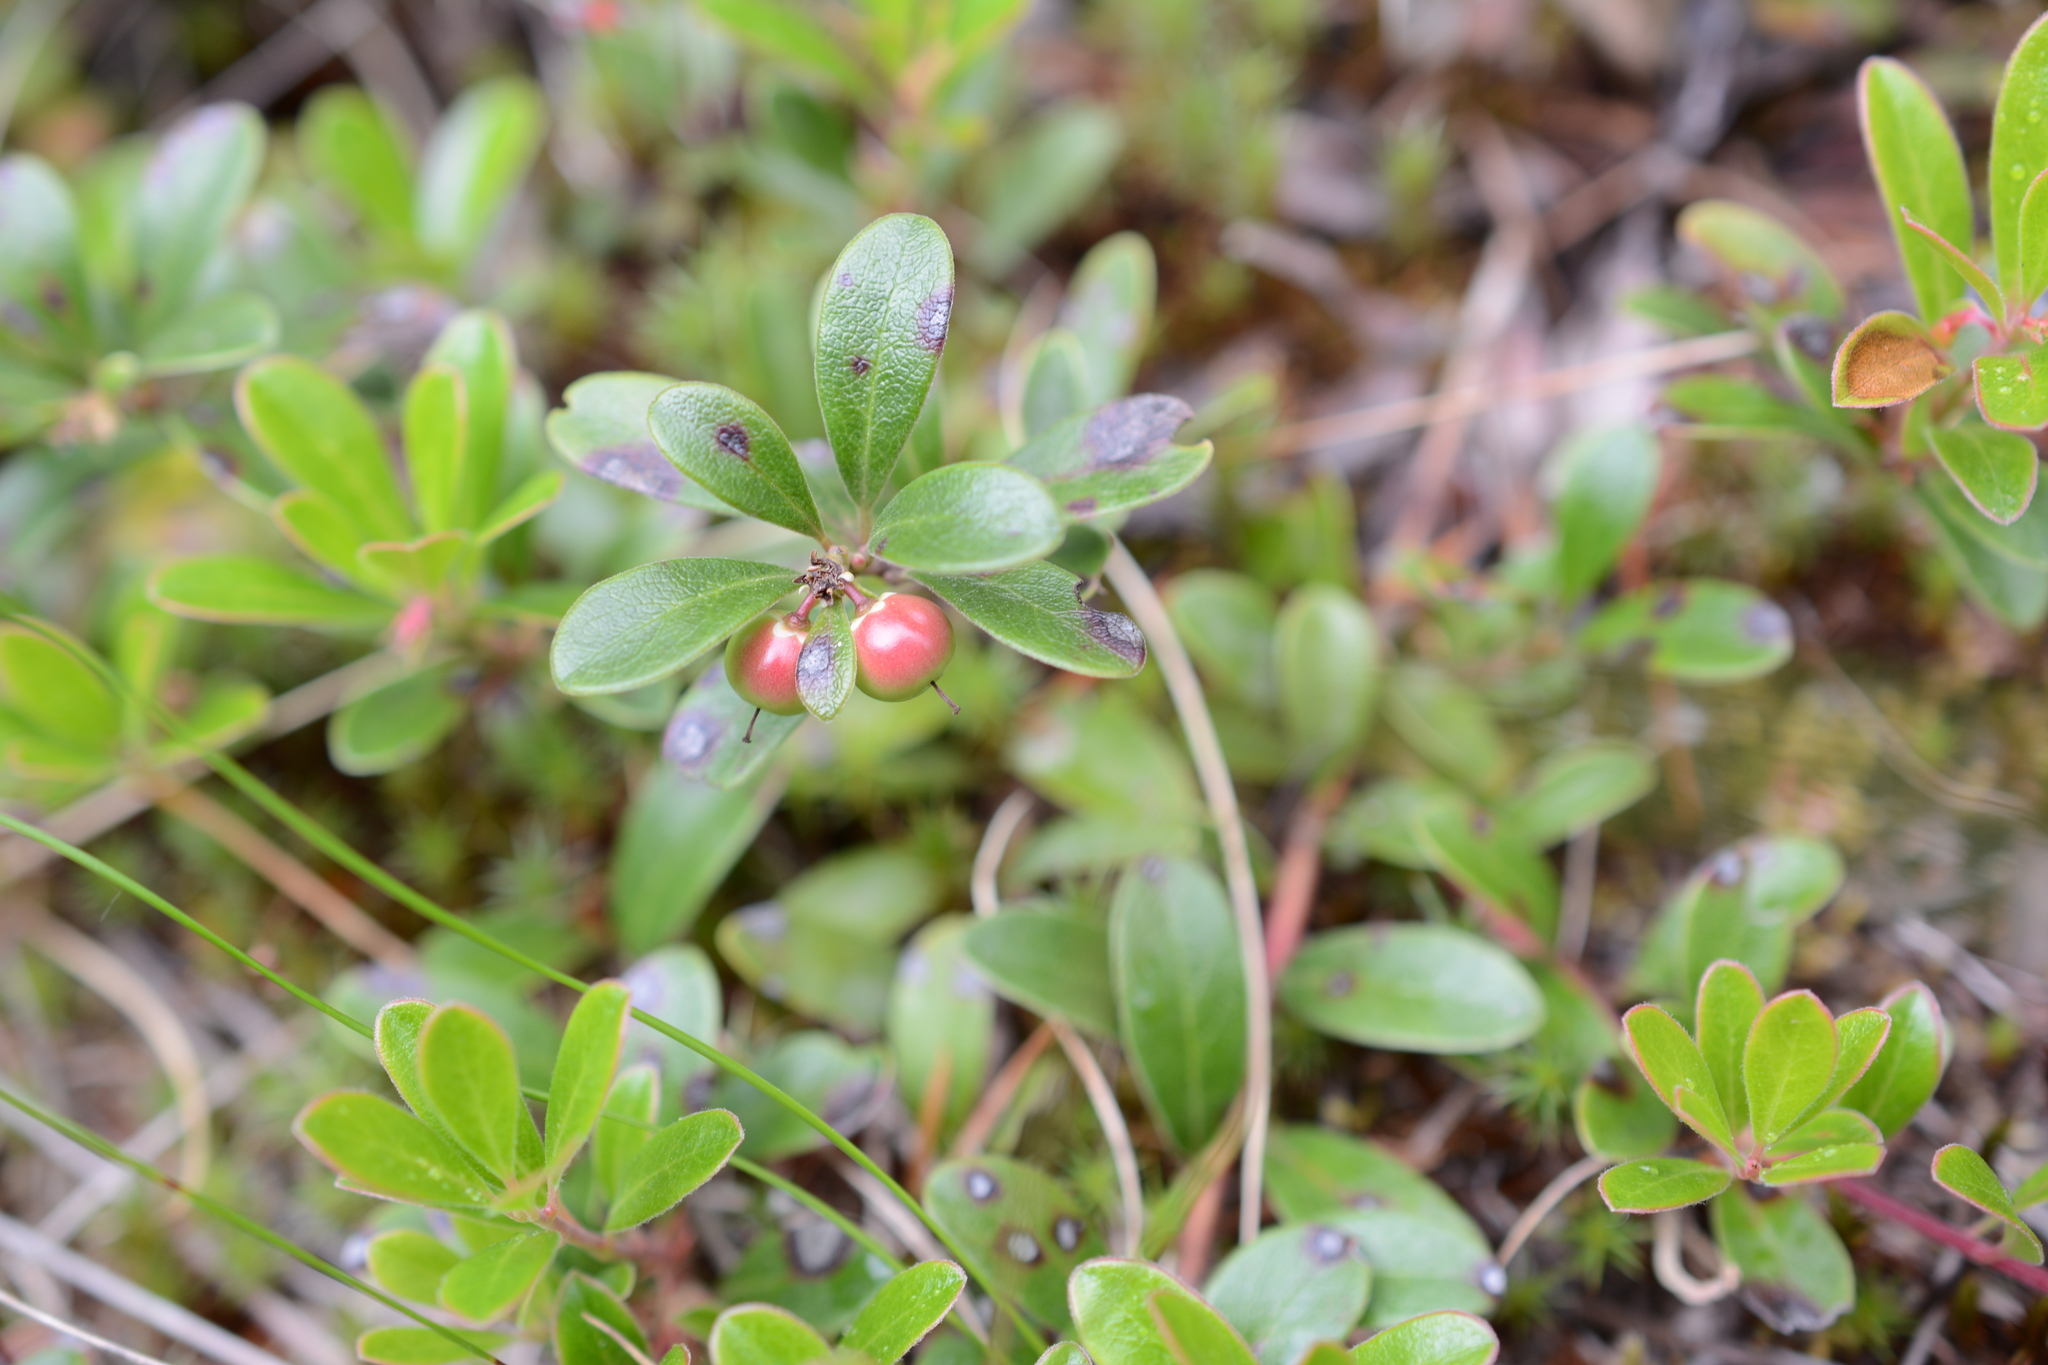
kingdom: Plantae
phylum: Tracheophyta
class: Magnoliopsida
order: Ericales
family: Ericaceae
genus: Arctostaphylos
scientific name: Arctostaphylos uva-ursi
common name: Bearberry
